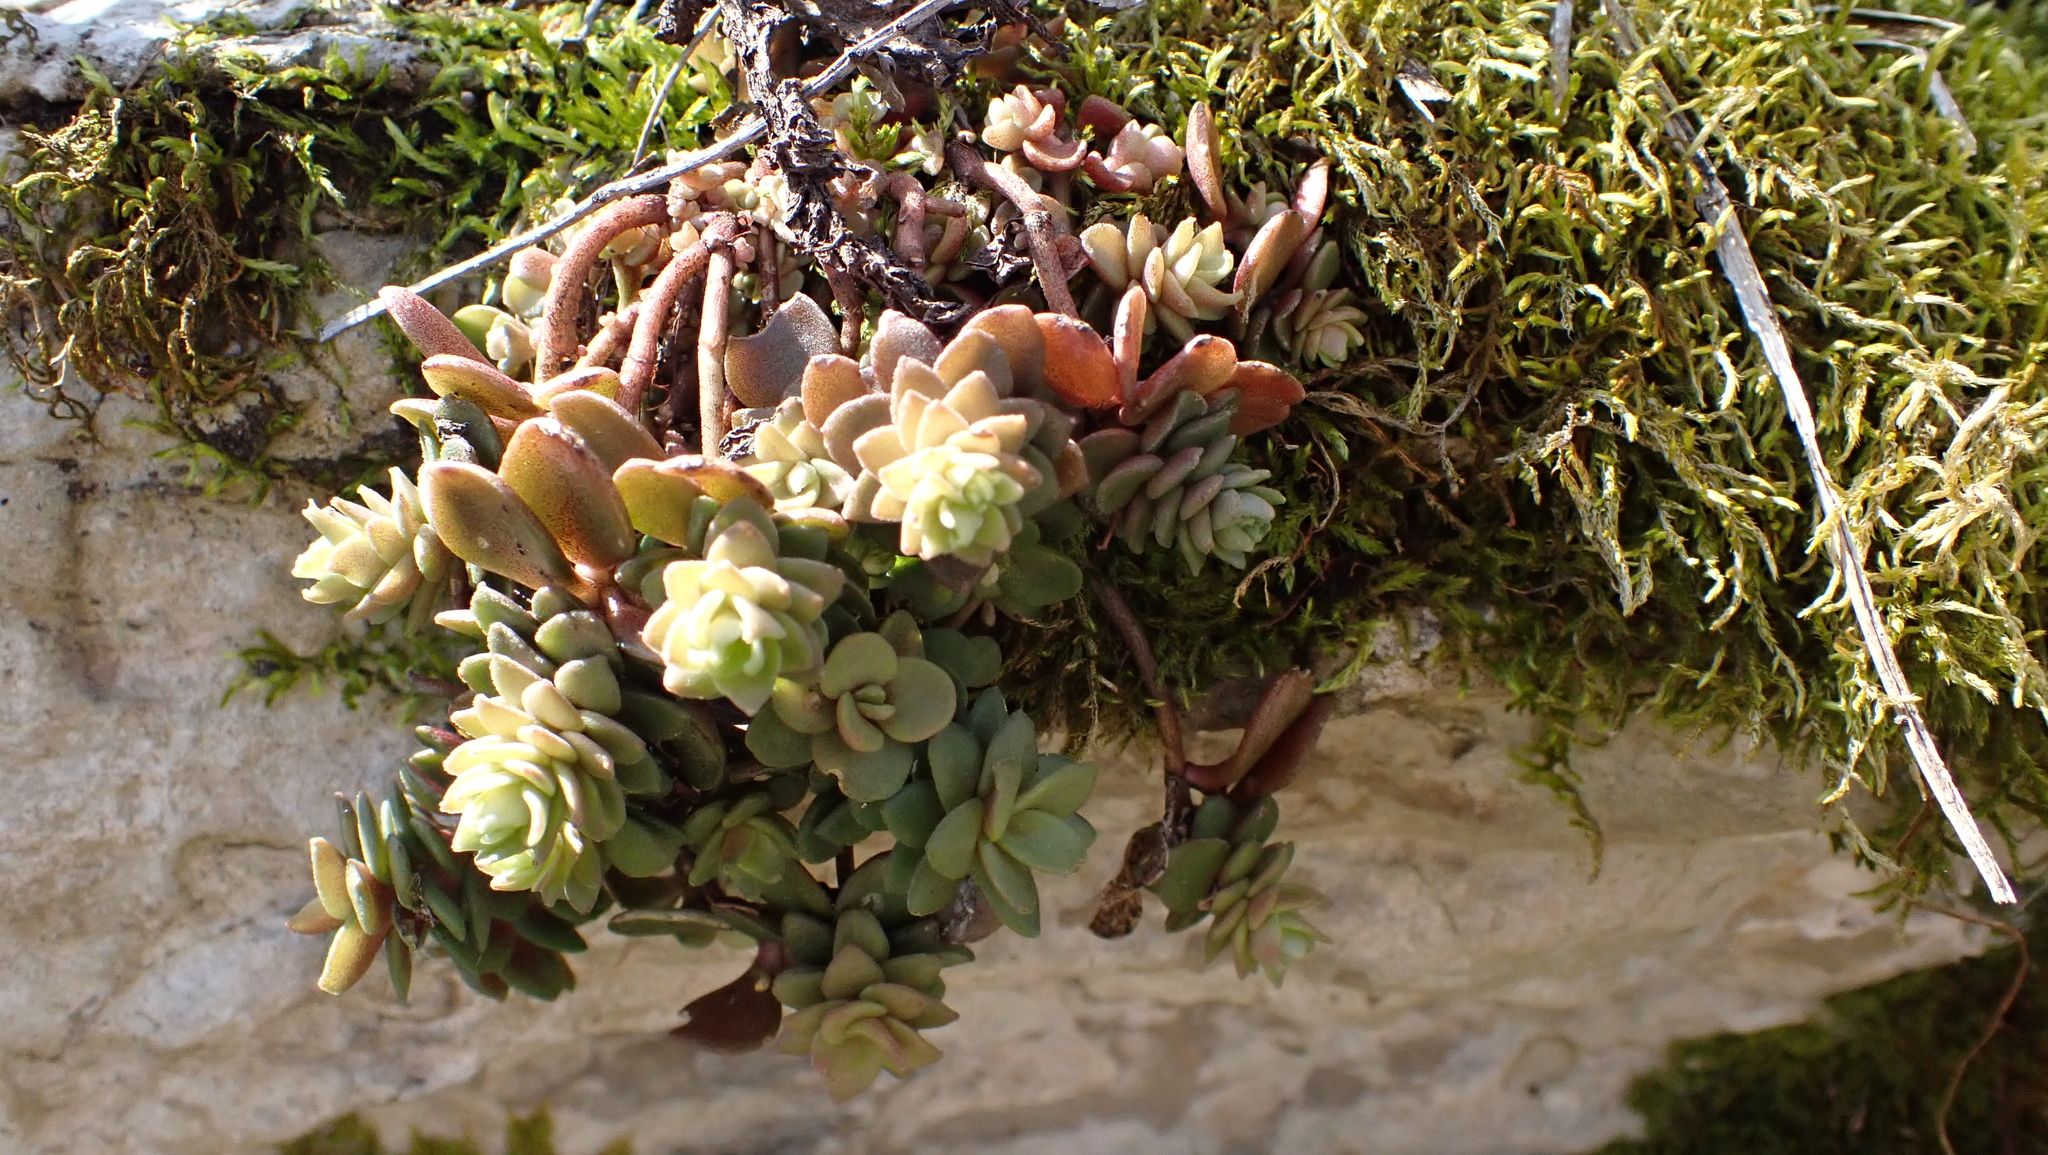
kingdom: Plantae
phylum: Tracheophyta
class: Magnoliopsida
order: Saxifragales
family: Crassulaceae
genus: Sedum
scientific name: Sedum ternatum
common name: Wild stonecrop
